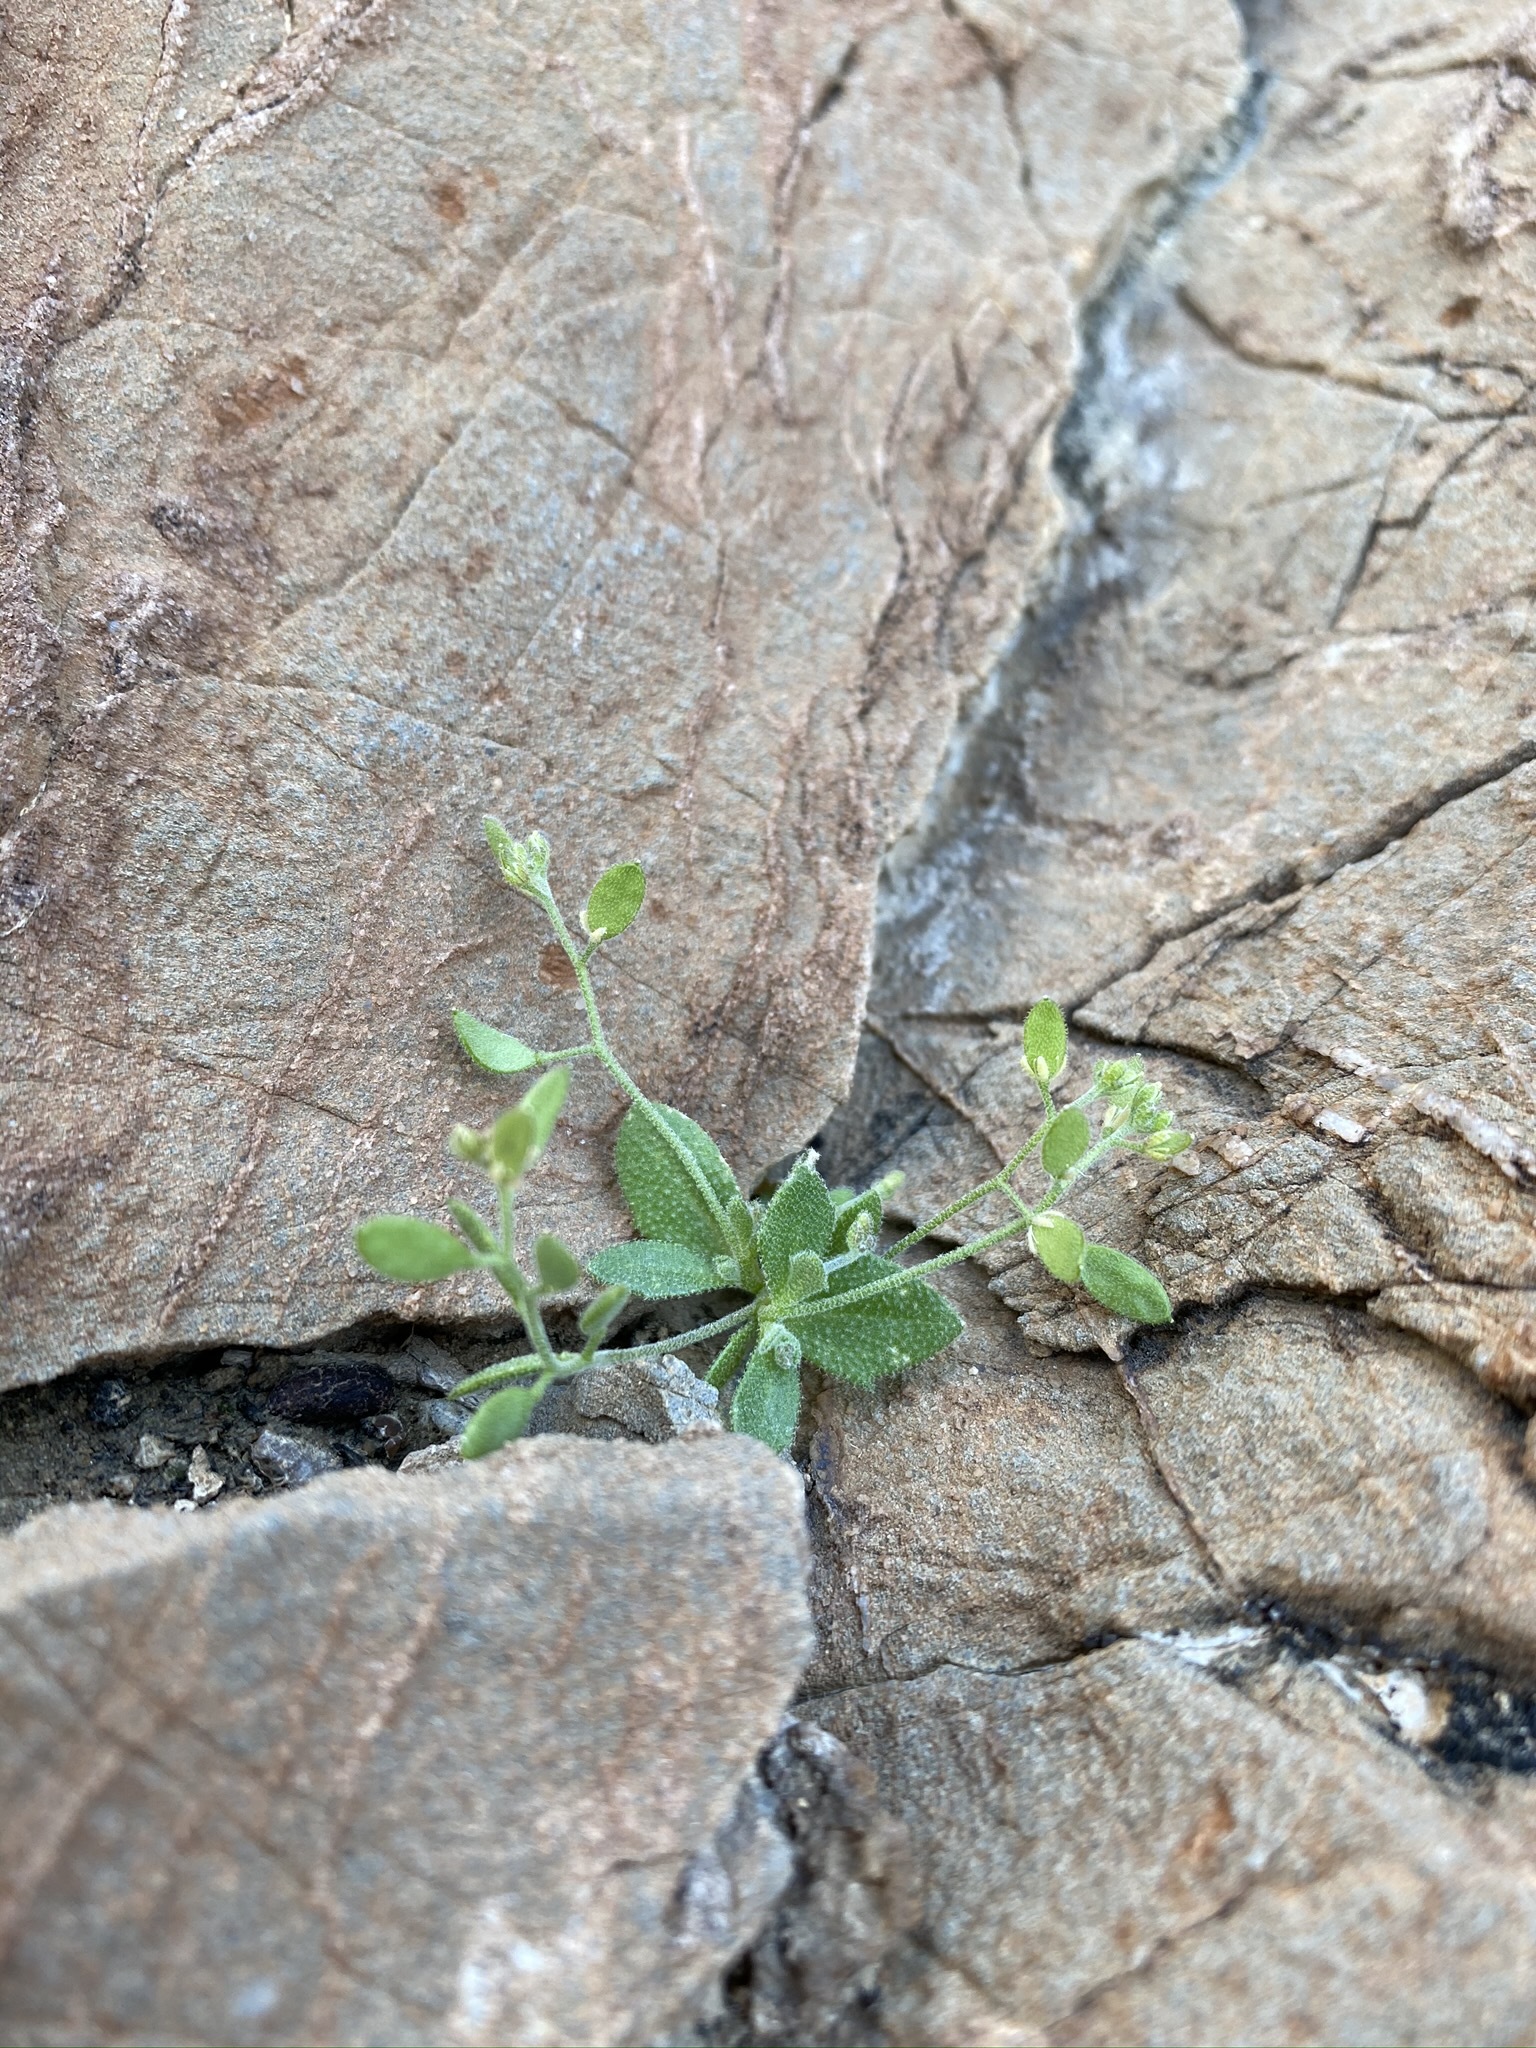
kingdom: Plantae
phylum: Tracheophyta
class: Magnoliopsida
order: Brassicales
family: Brassicaceae
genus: Tomostima
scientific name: Tomostima cuneifolia
